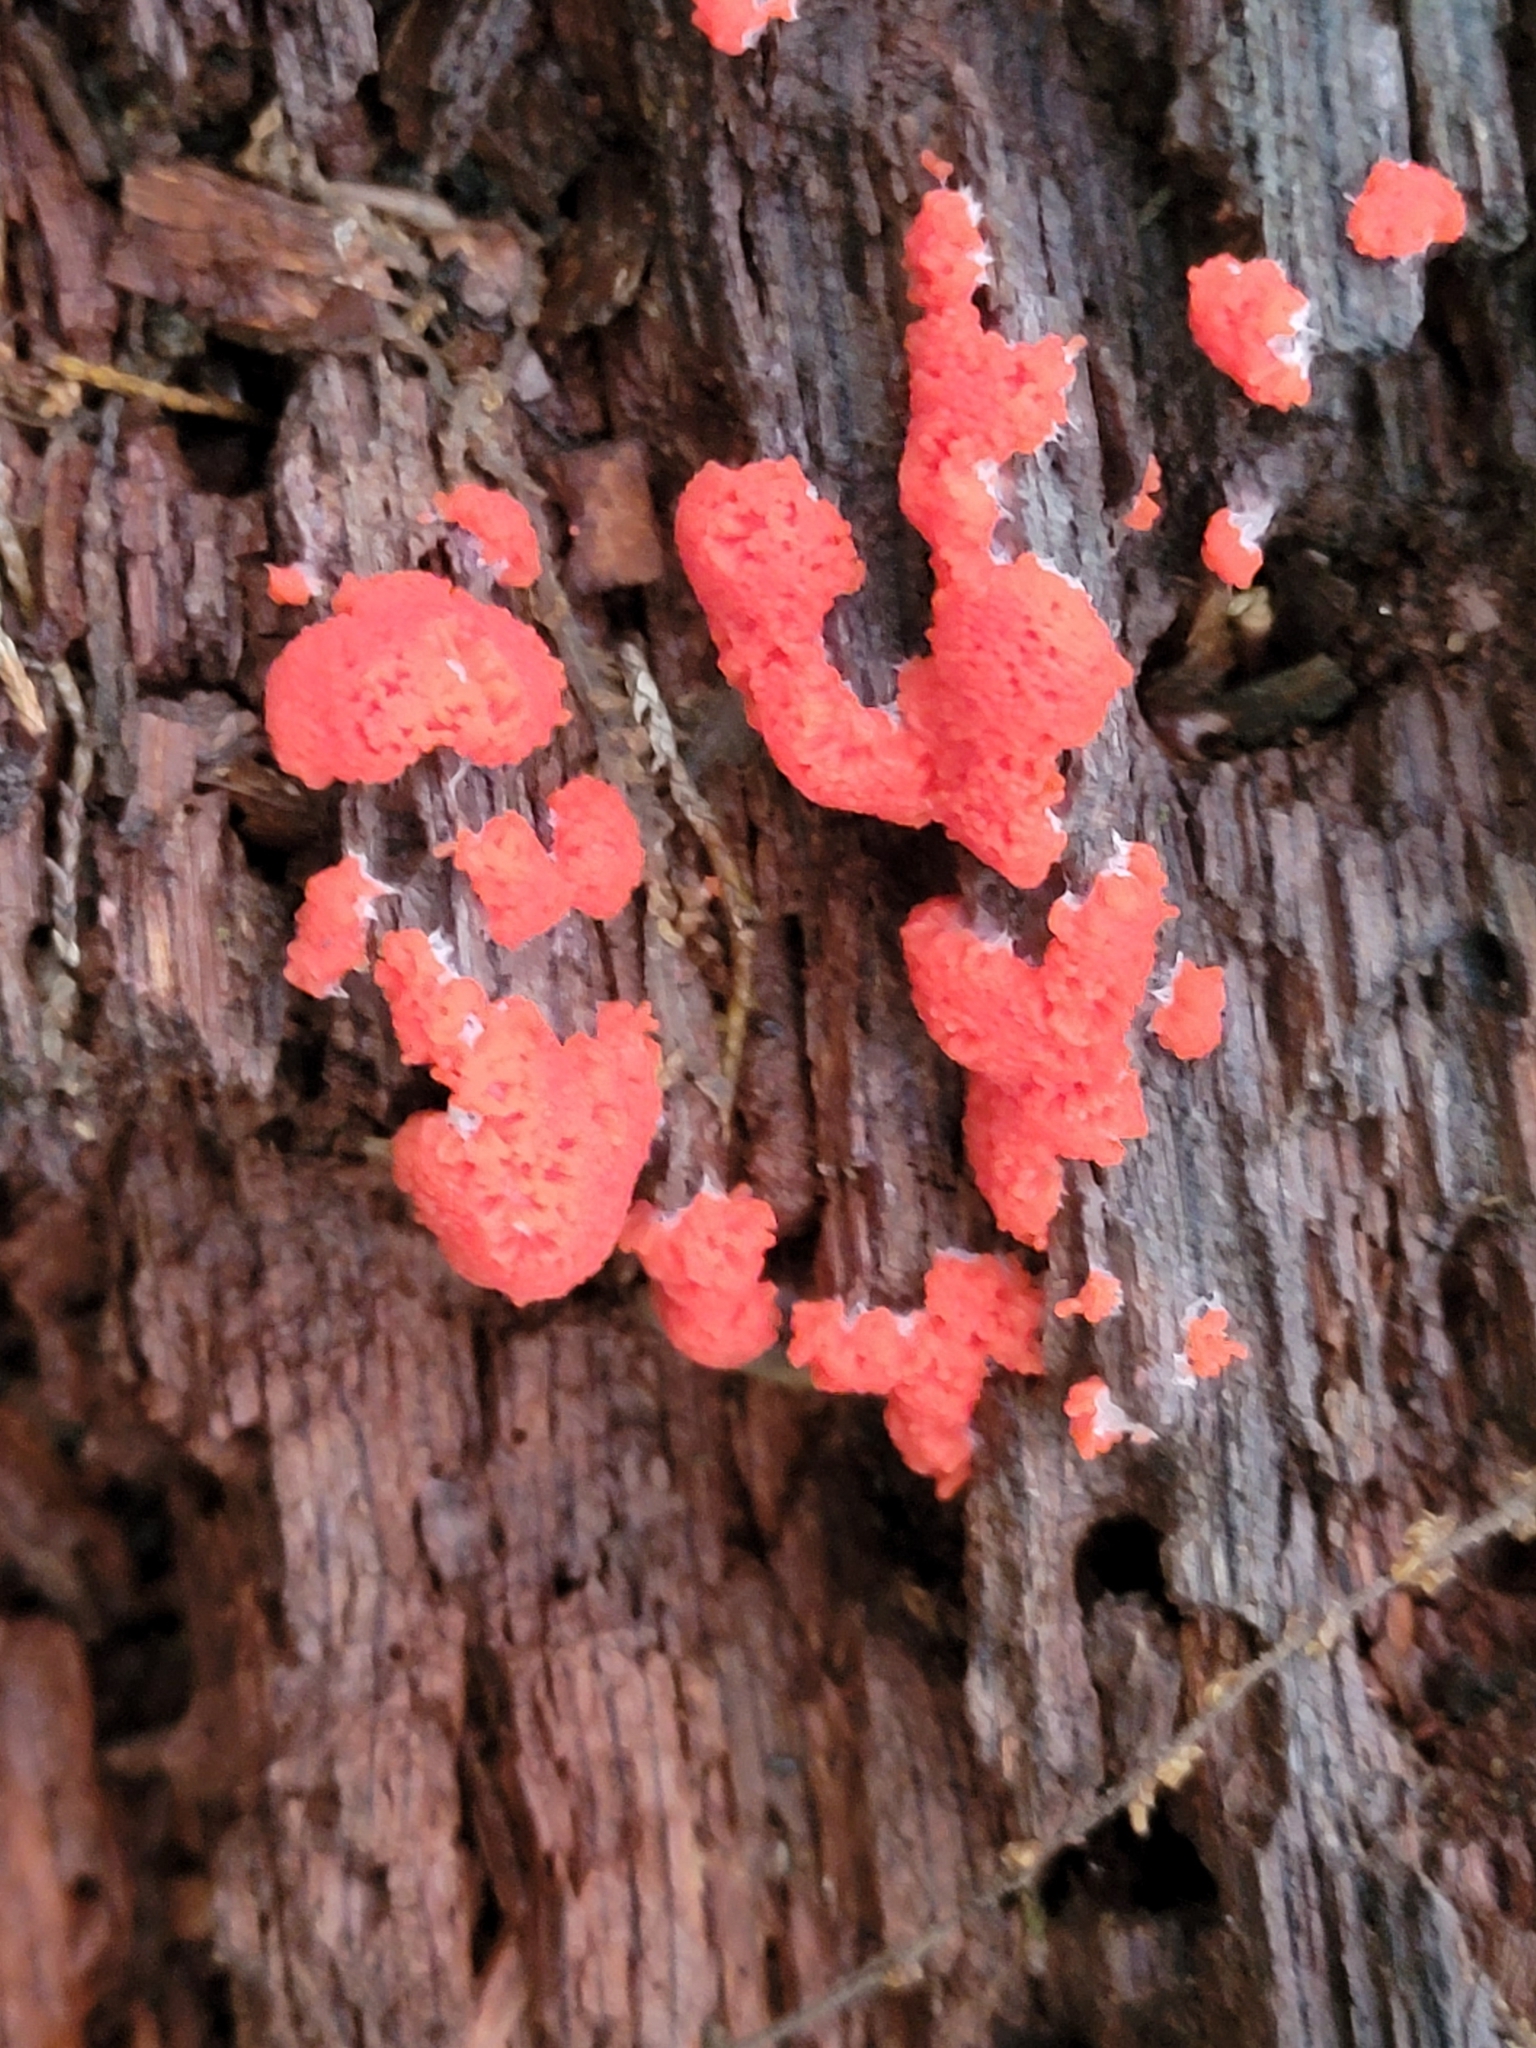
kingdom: Protozoa
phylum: Mycetozoa
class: Myxomycetes
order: Cribrariales
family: Tubiferaceae
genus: Tubifera
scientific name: Tubifera ferruginosa
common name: Red raspberry slime mold
